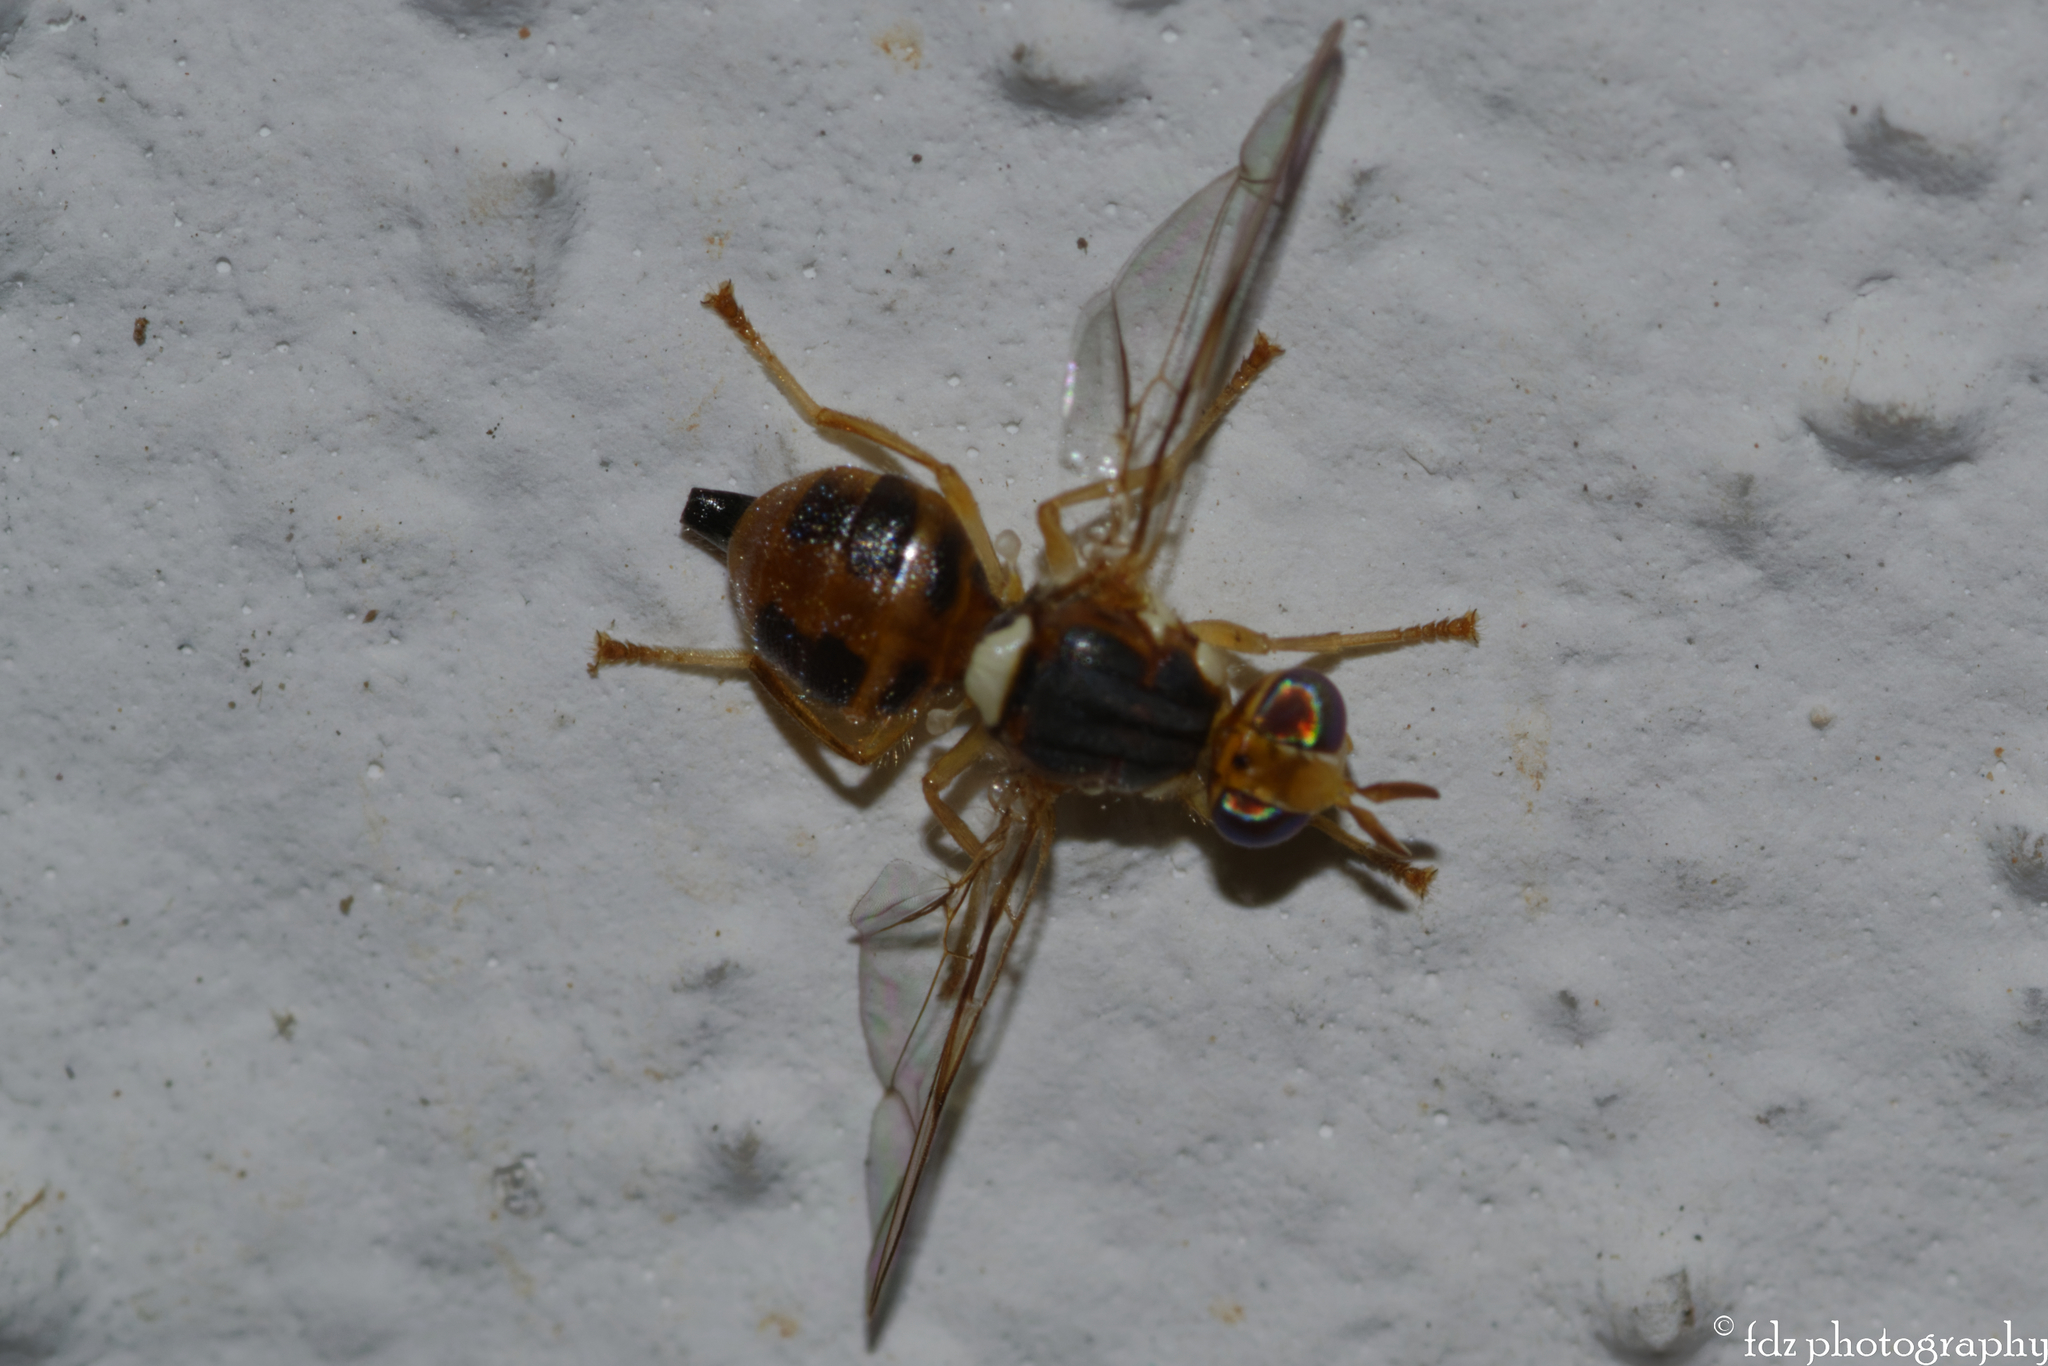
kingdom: Animalia
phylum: Arthropoda
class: Insecta
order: Diptera
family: Tephritidae
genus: Bactrocera
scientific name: Bactrocera oleae
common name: Olive fruit fly
